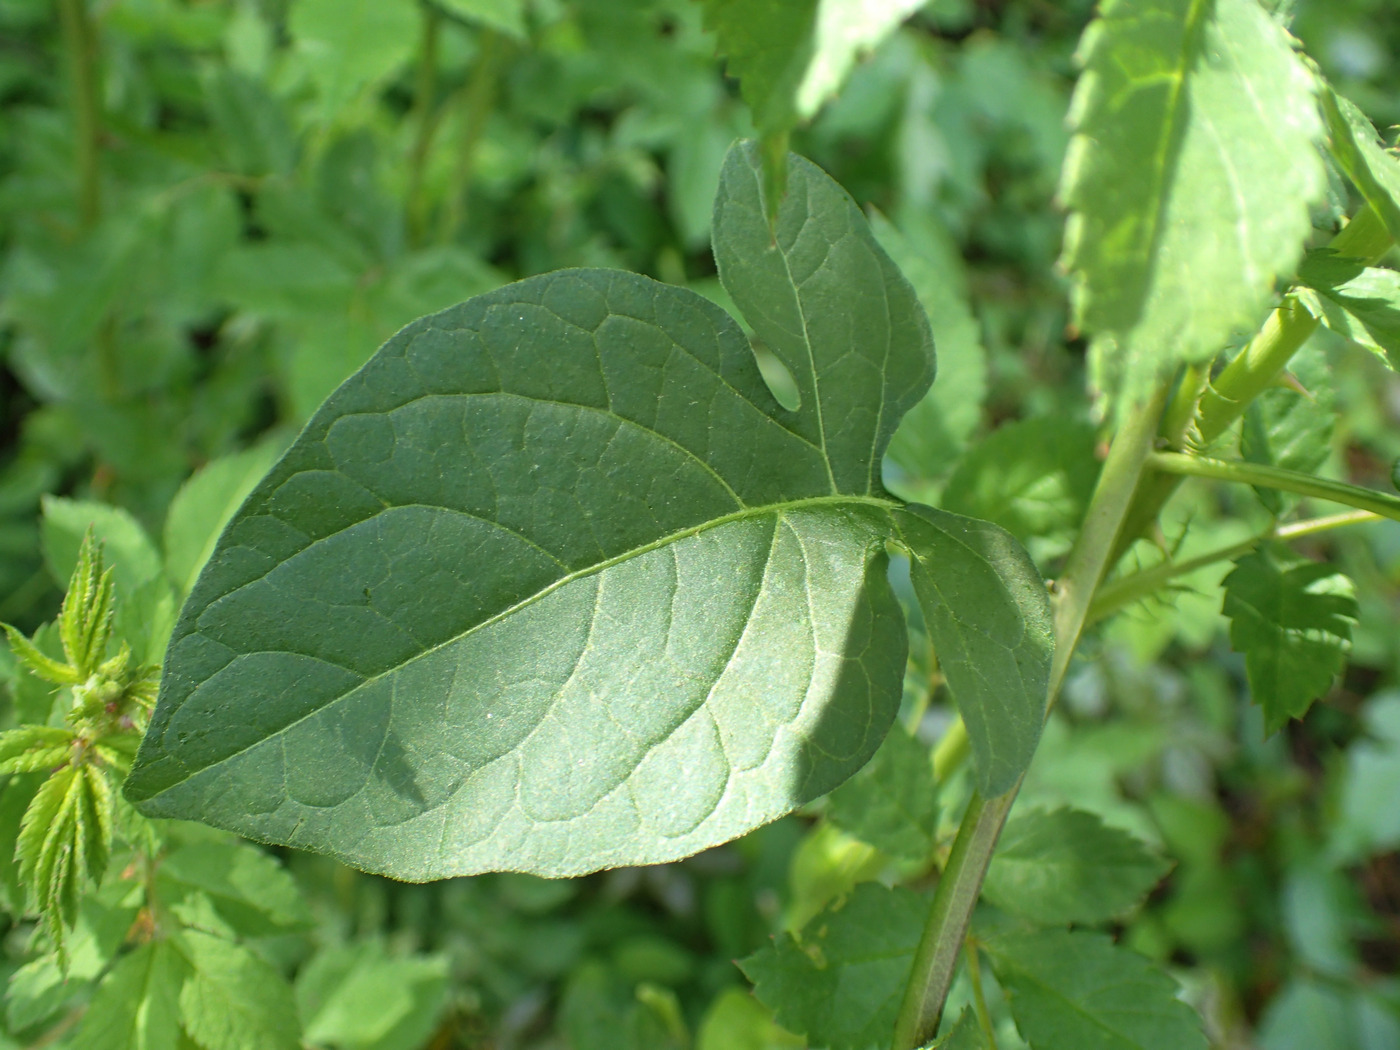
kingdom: Plantae
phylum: Tracheophyta
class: Magnoliopsida
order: Solanales
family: Solanaceae
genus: Solanum
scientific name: Solanum dulcamara
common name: Climbing nightshade
